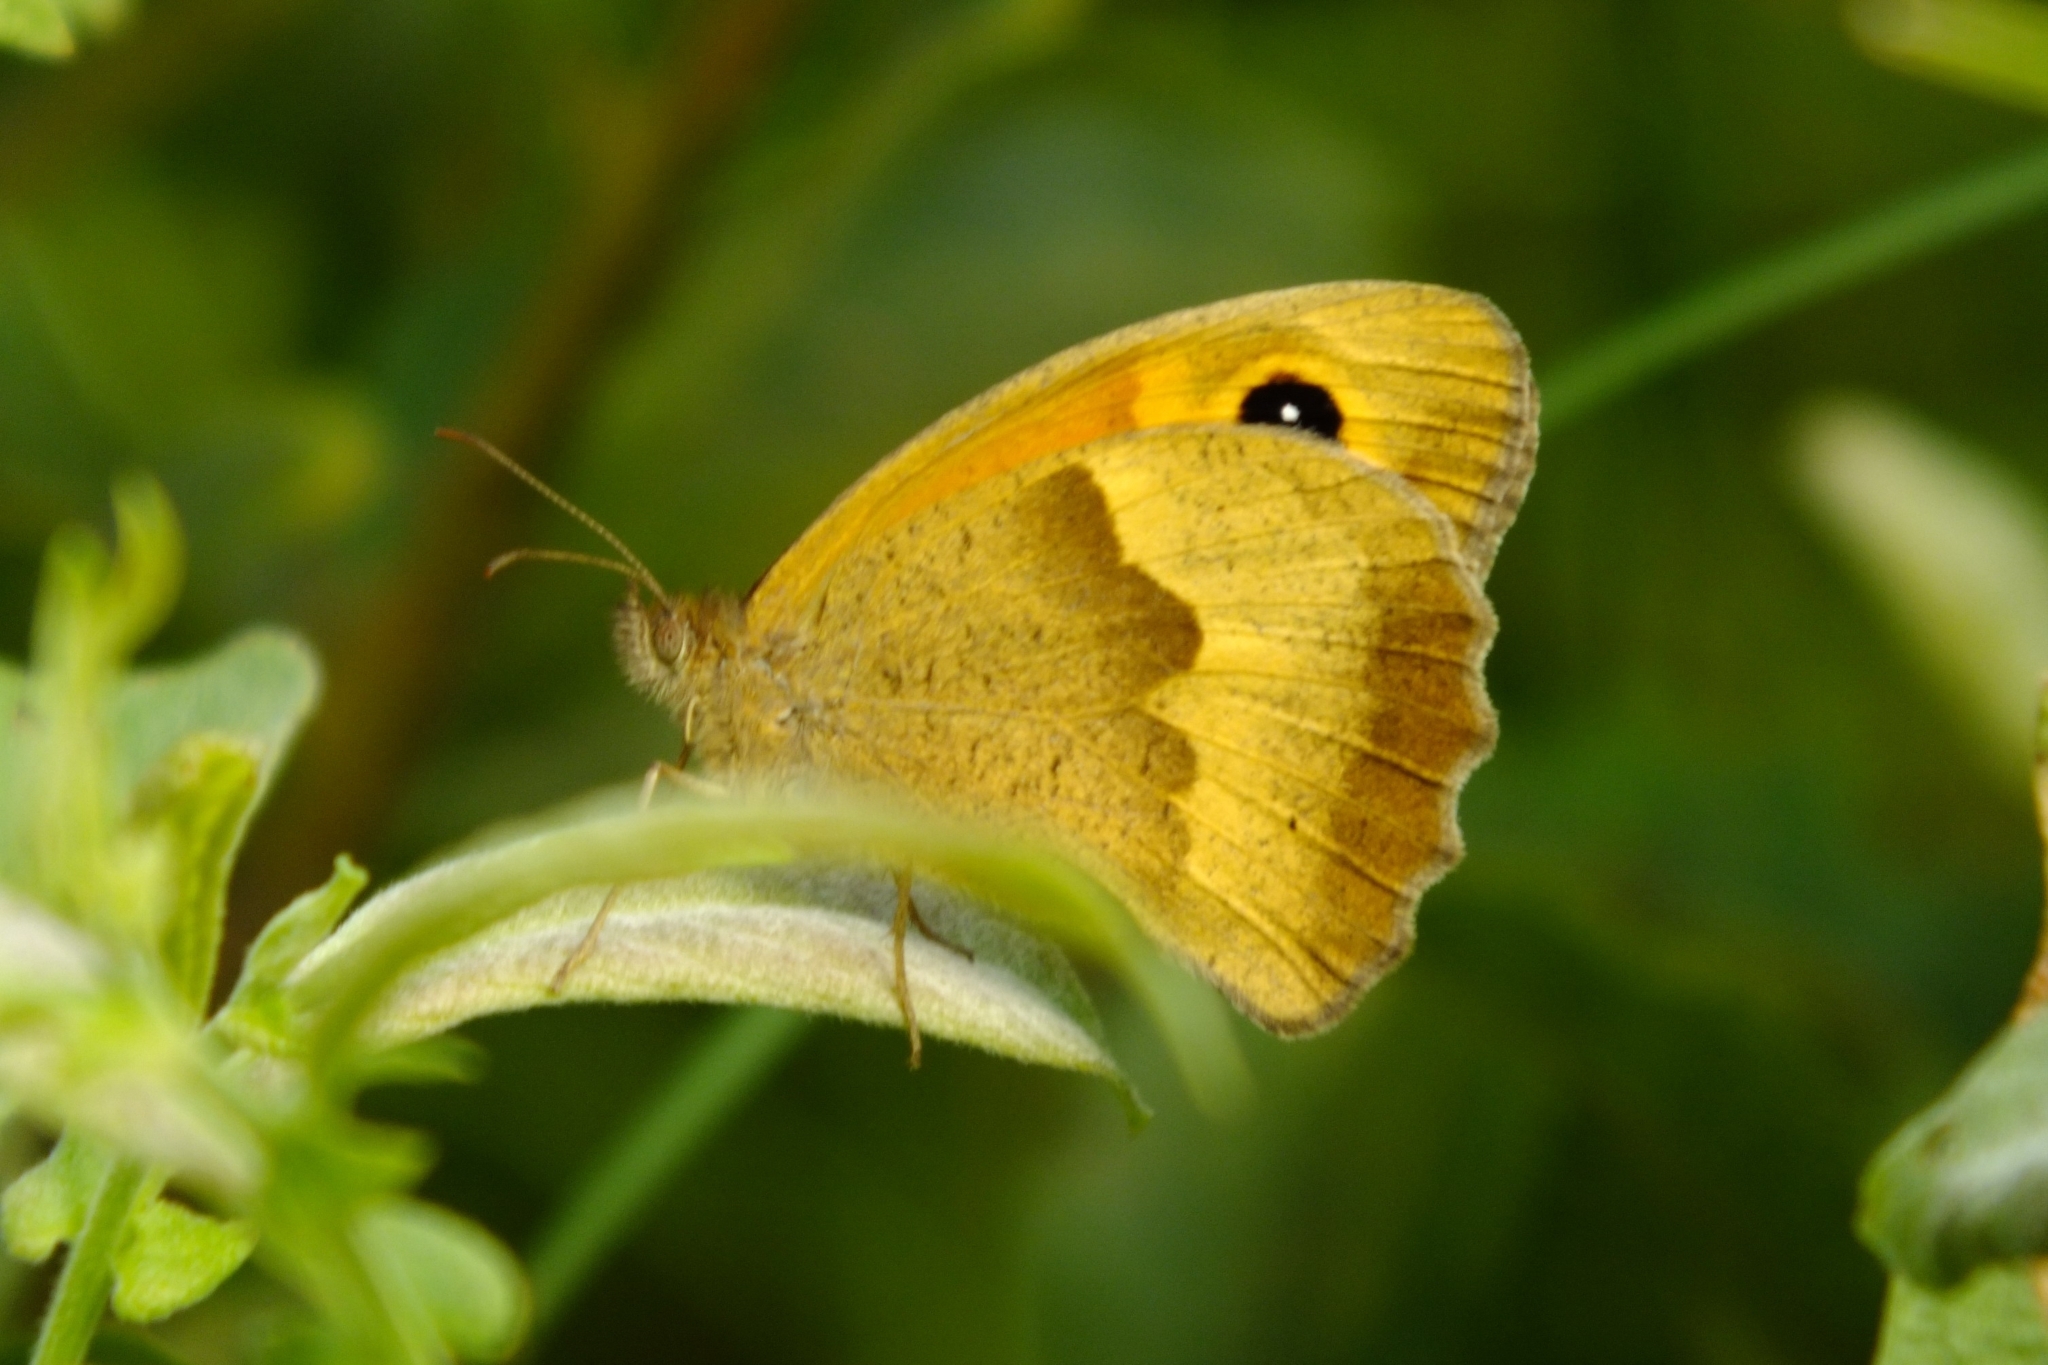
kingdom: Animalia
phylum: Arthropoda
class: Insecta
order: Lepidoptera
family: Nymphalidae
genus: Maniola
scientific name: Maniola jurtina
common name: Meadow brown
